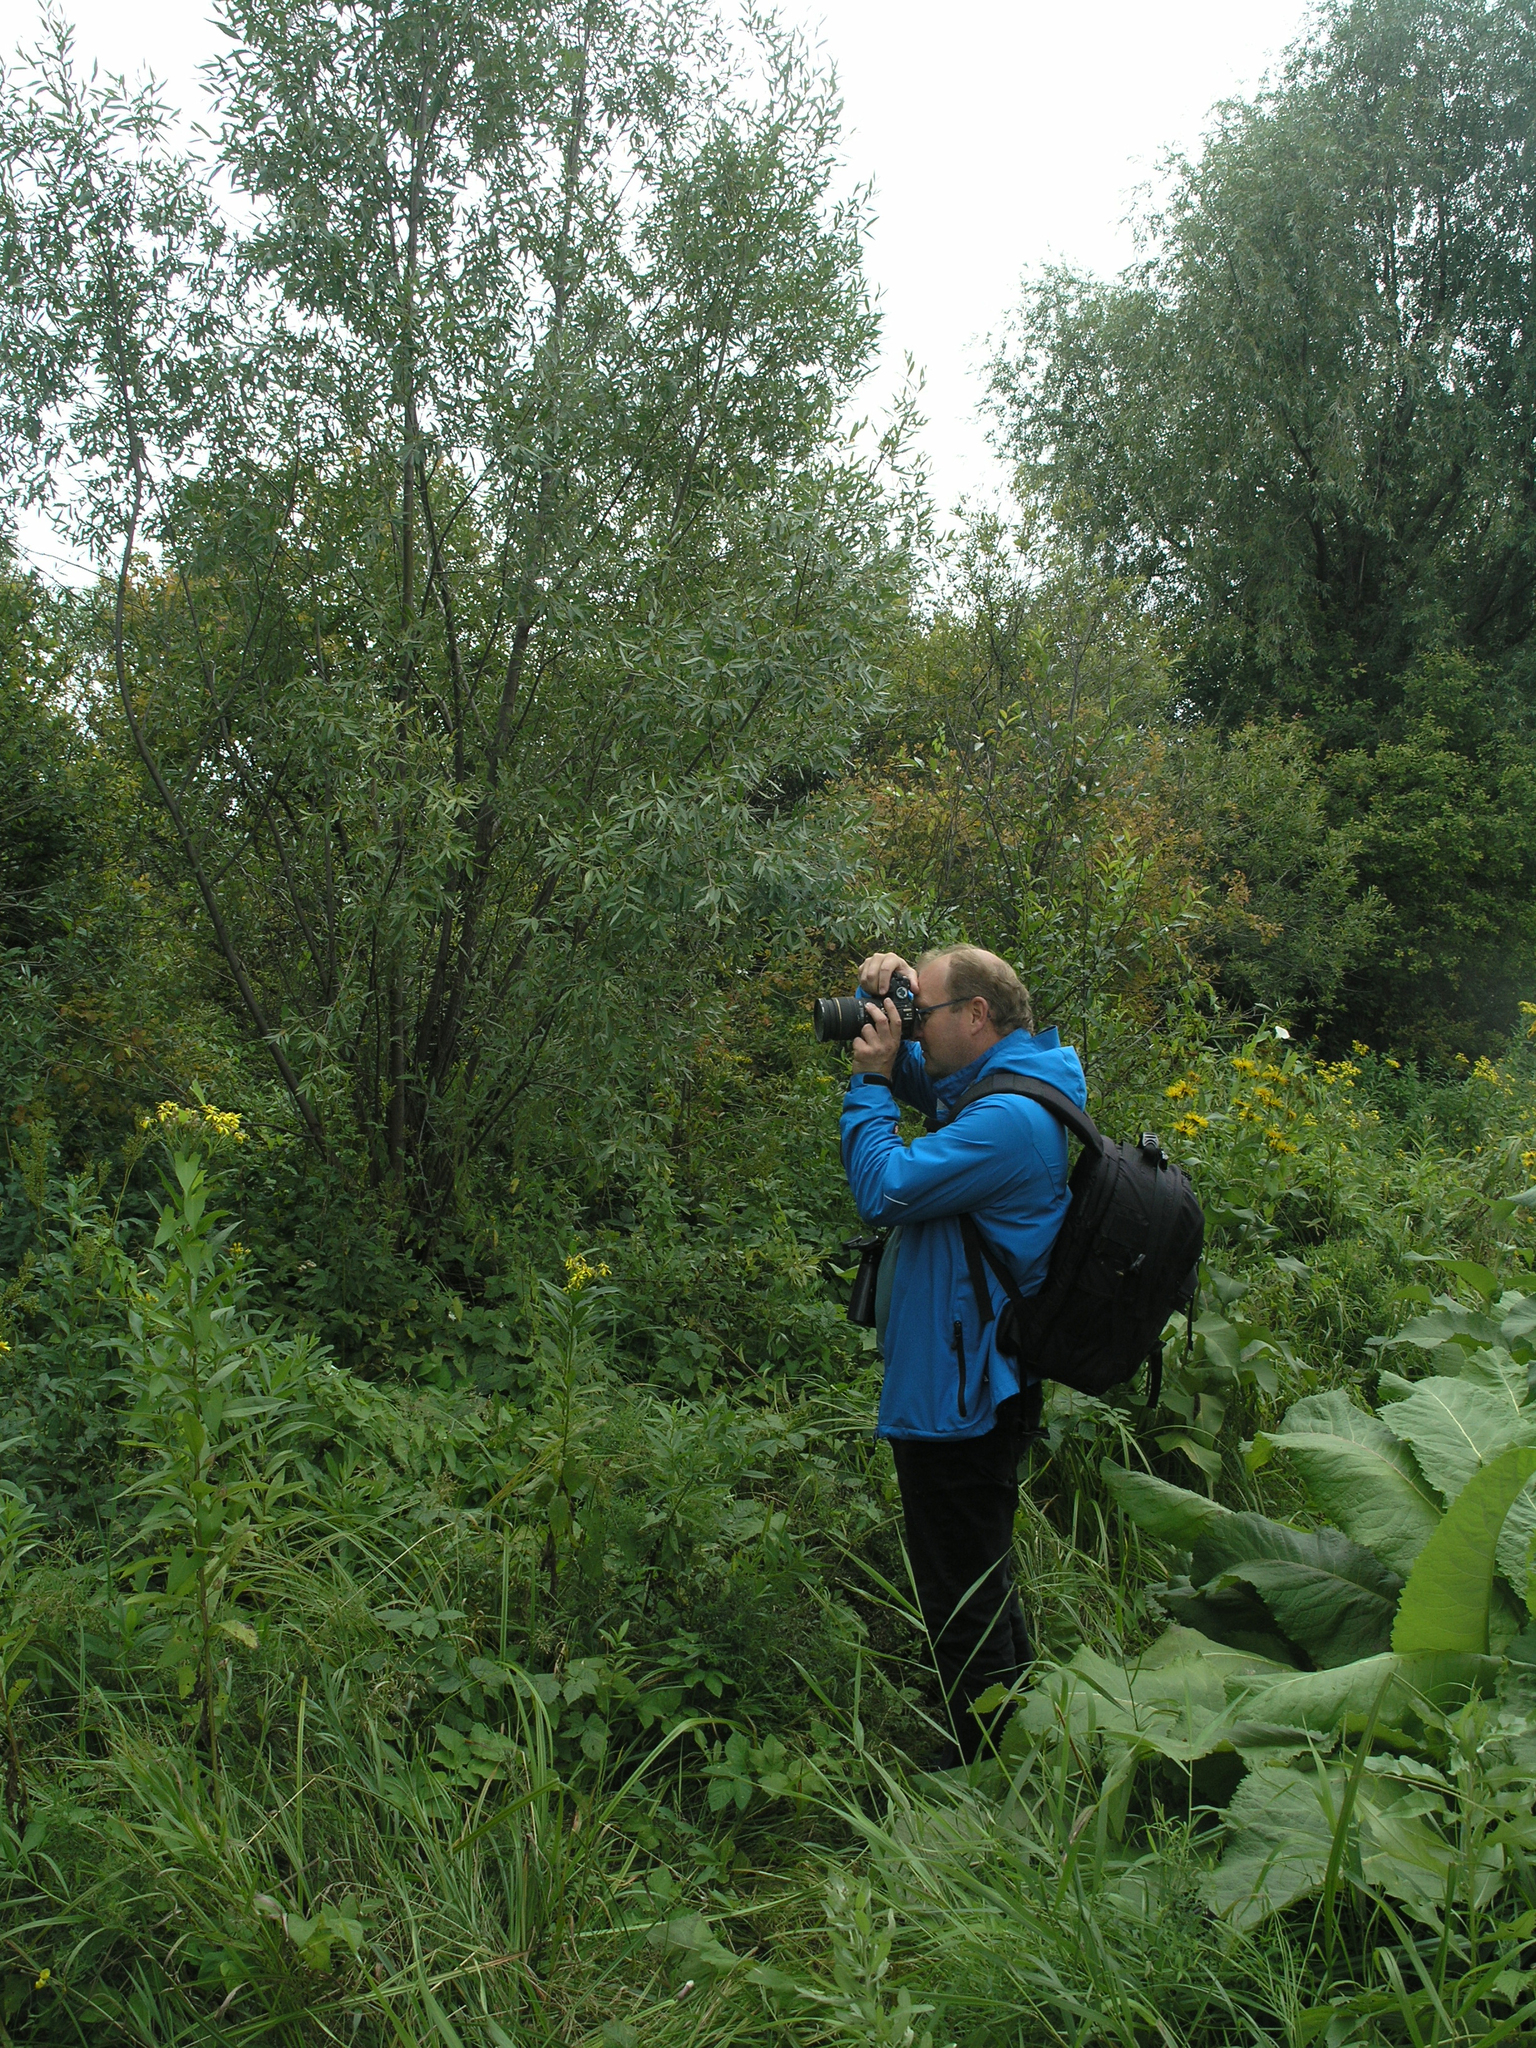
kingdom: Plantae
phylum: Tracheophyta
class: Magnoliopsida
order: Asterales
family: Asteraceae
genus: Senecio
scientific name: Senecio sarracenicus
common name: Broad-leaved ragwort
